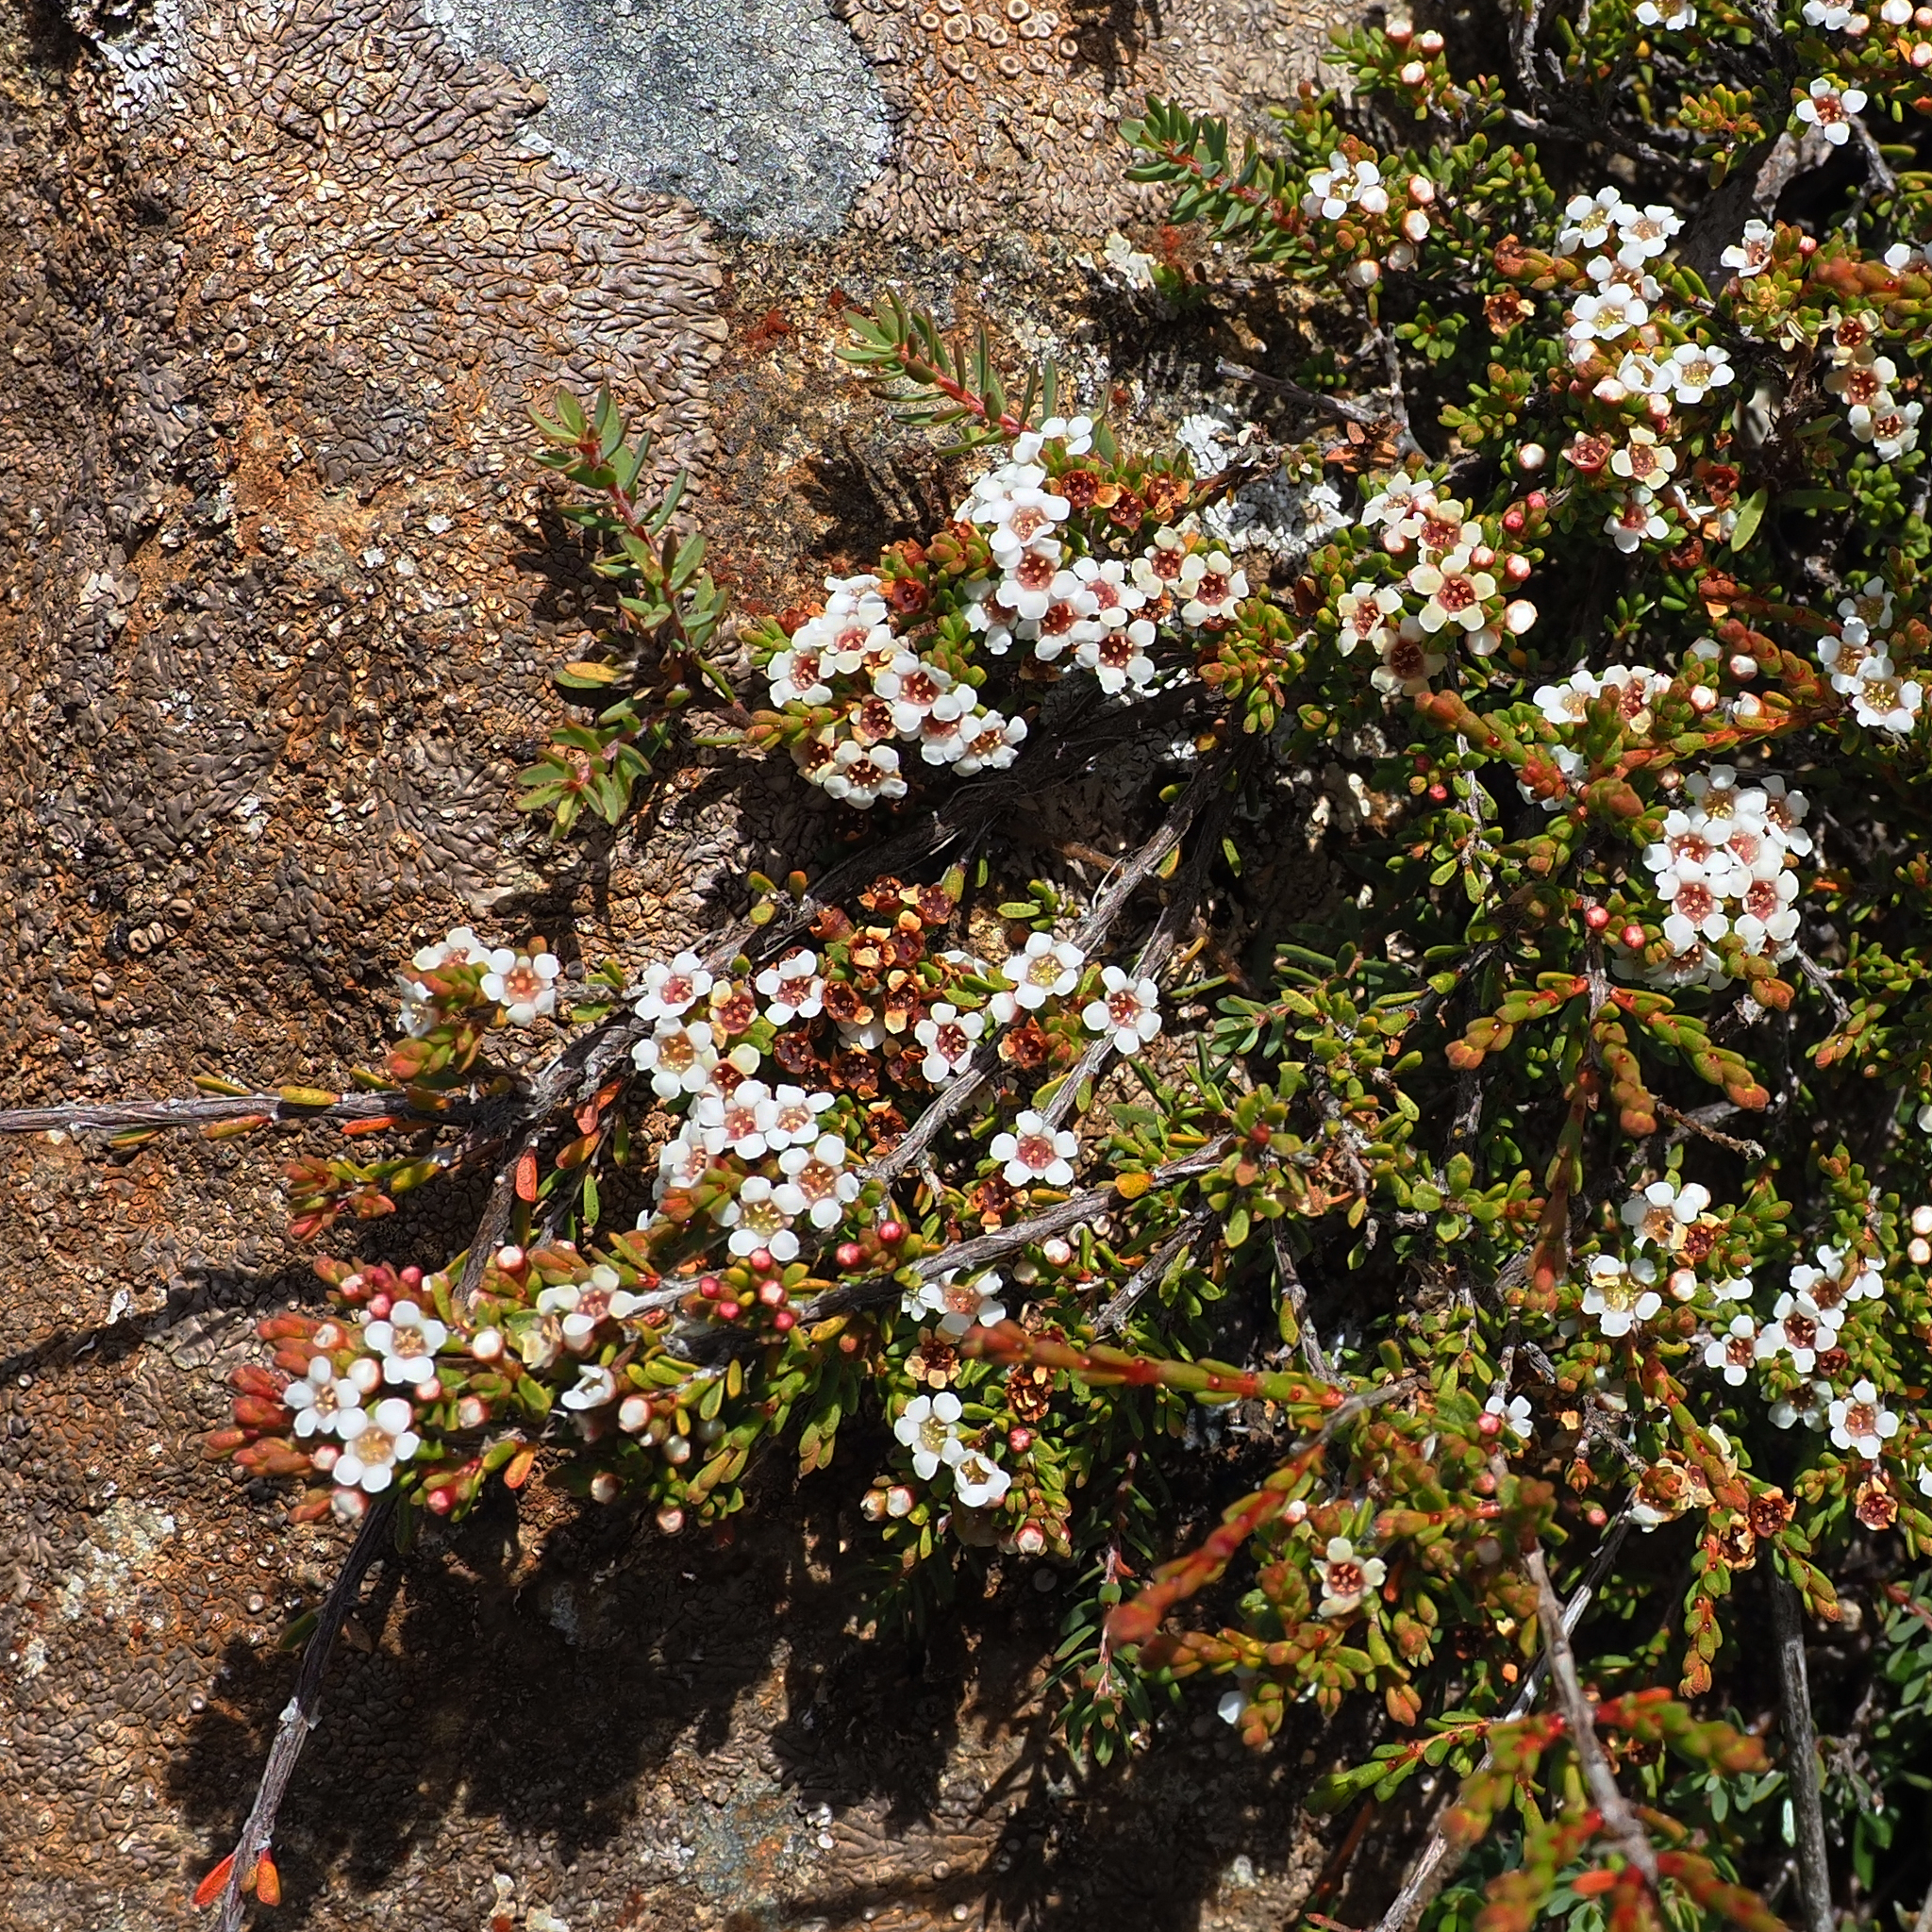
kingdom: Plantae
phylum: Tracheophyta
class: Magnoliopsida
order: Myrtales
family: Myrtaceae
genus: Baeckea
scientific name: Baeckea gunniana
